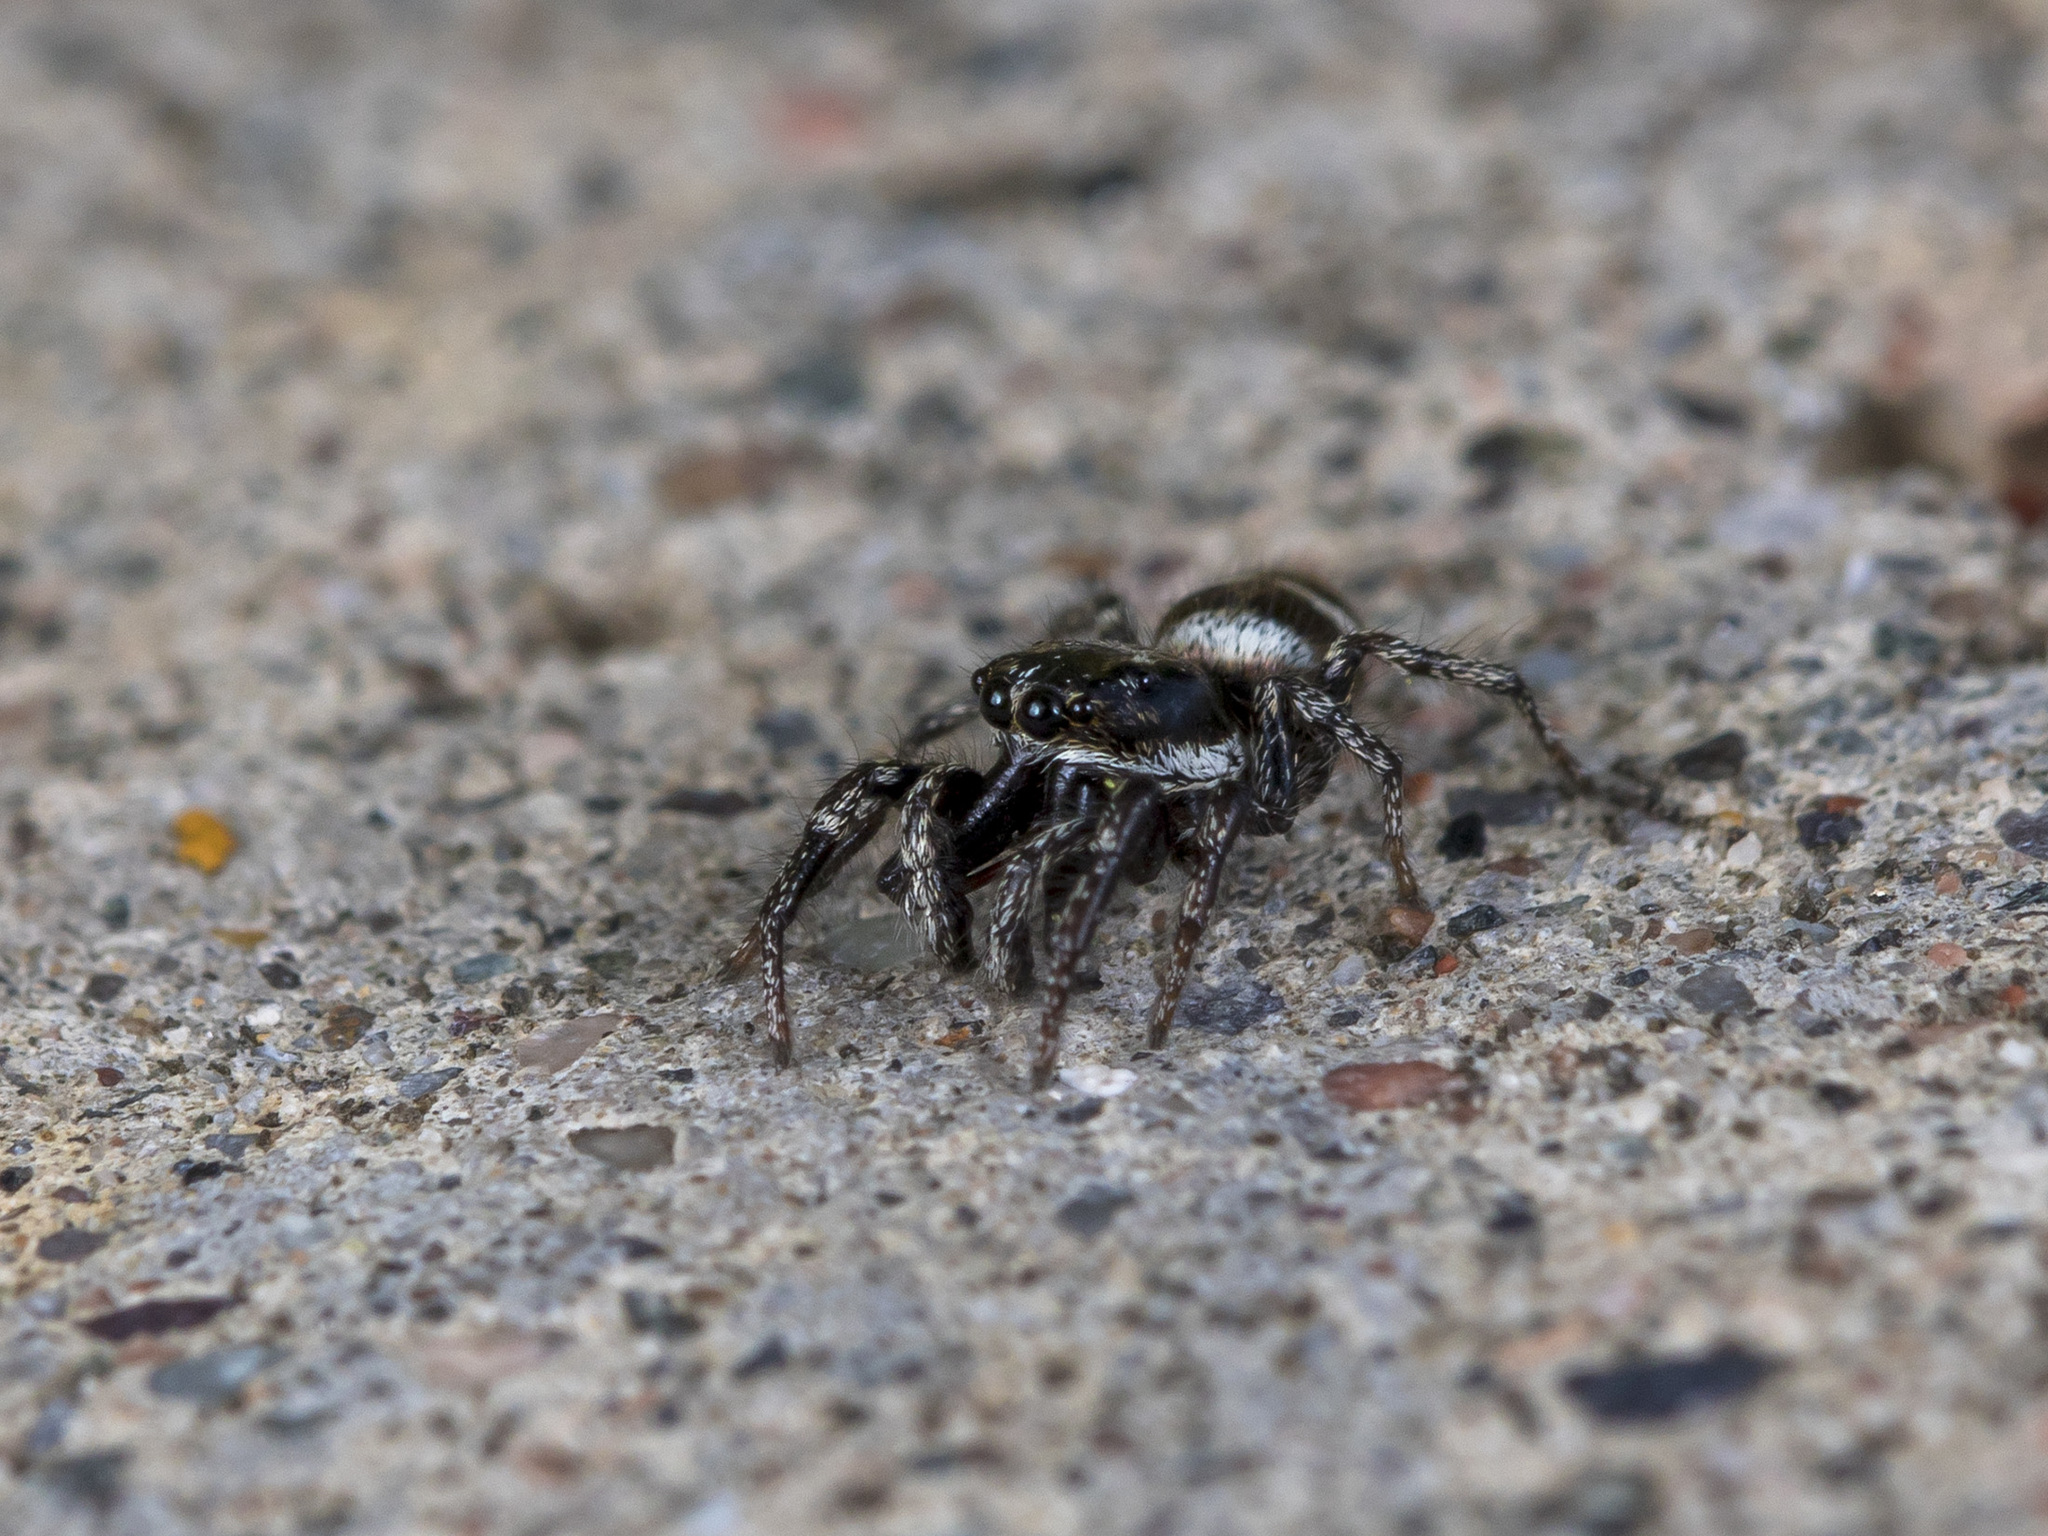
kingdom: Animalia
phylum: Arthropoda
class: Arachnida
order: Araneae
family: Salticidae
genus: Salticus
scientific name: Salticus scenicus
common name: Zebra jumper
